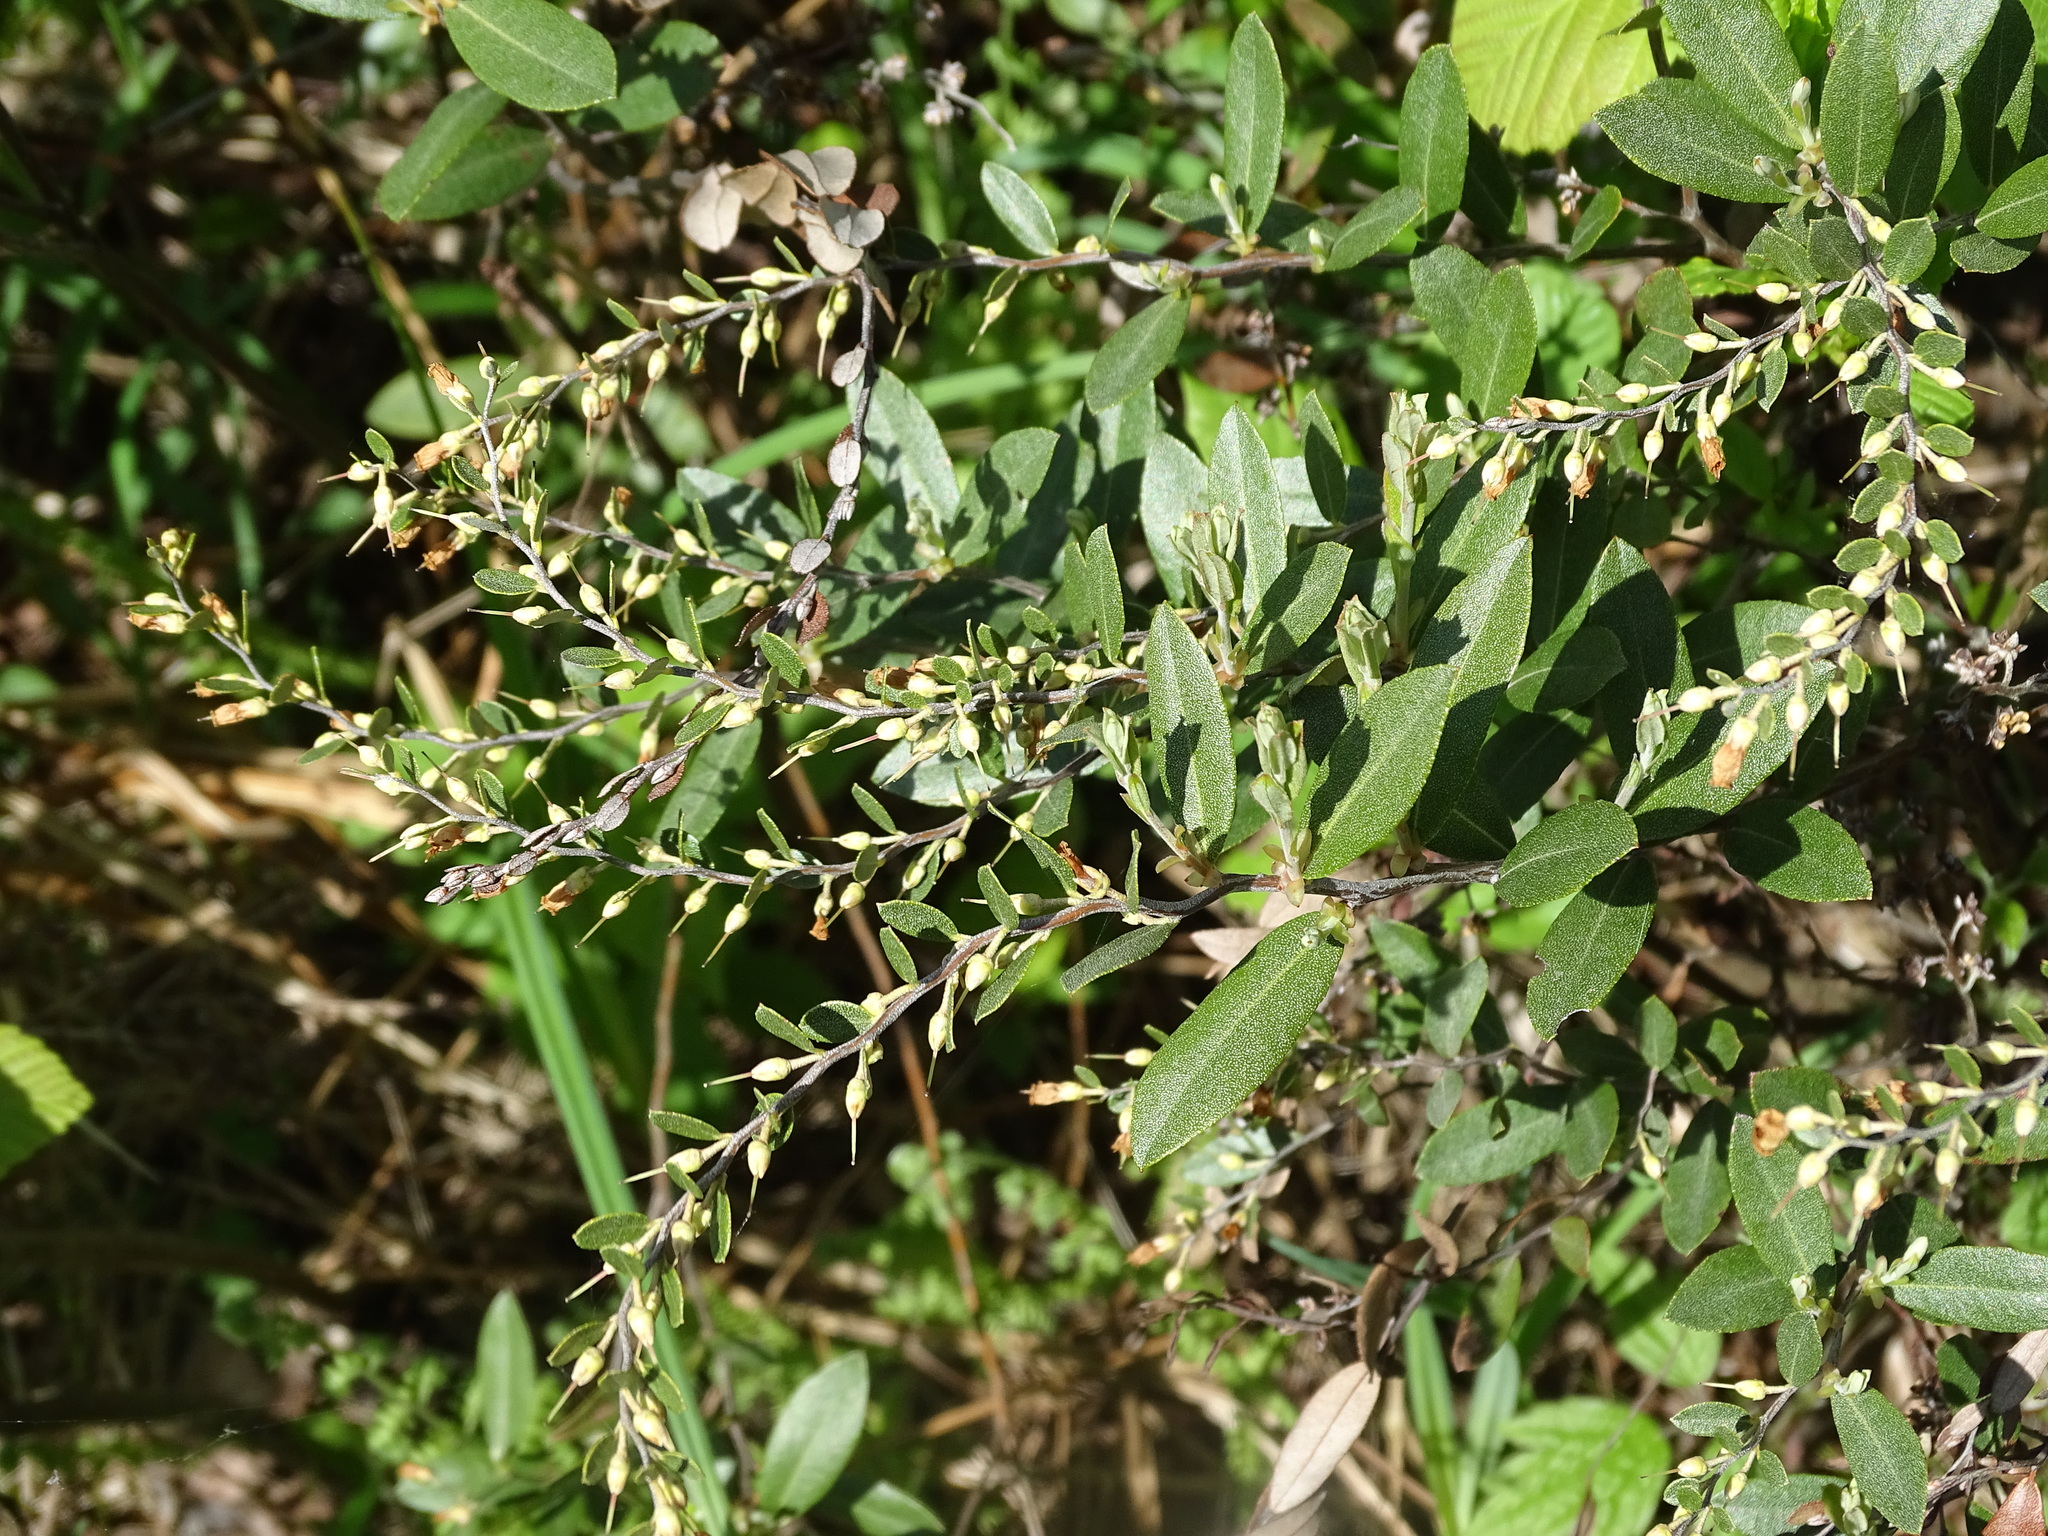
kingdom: Plantae
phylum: Tracheophyta
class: Magnoliopsida
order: Ericales
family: Ericaceae
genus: Chamaedaphne
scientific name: Chamaedaphne calyculata
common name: Leatherleaf
